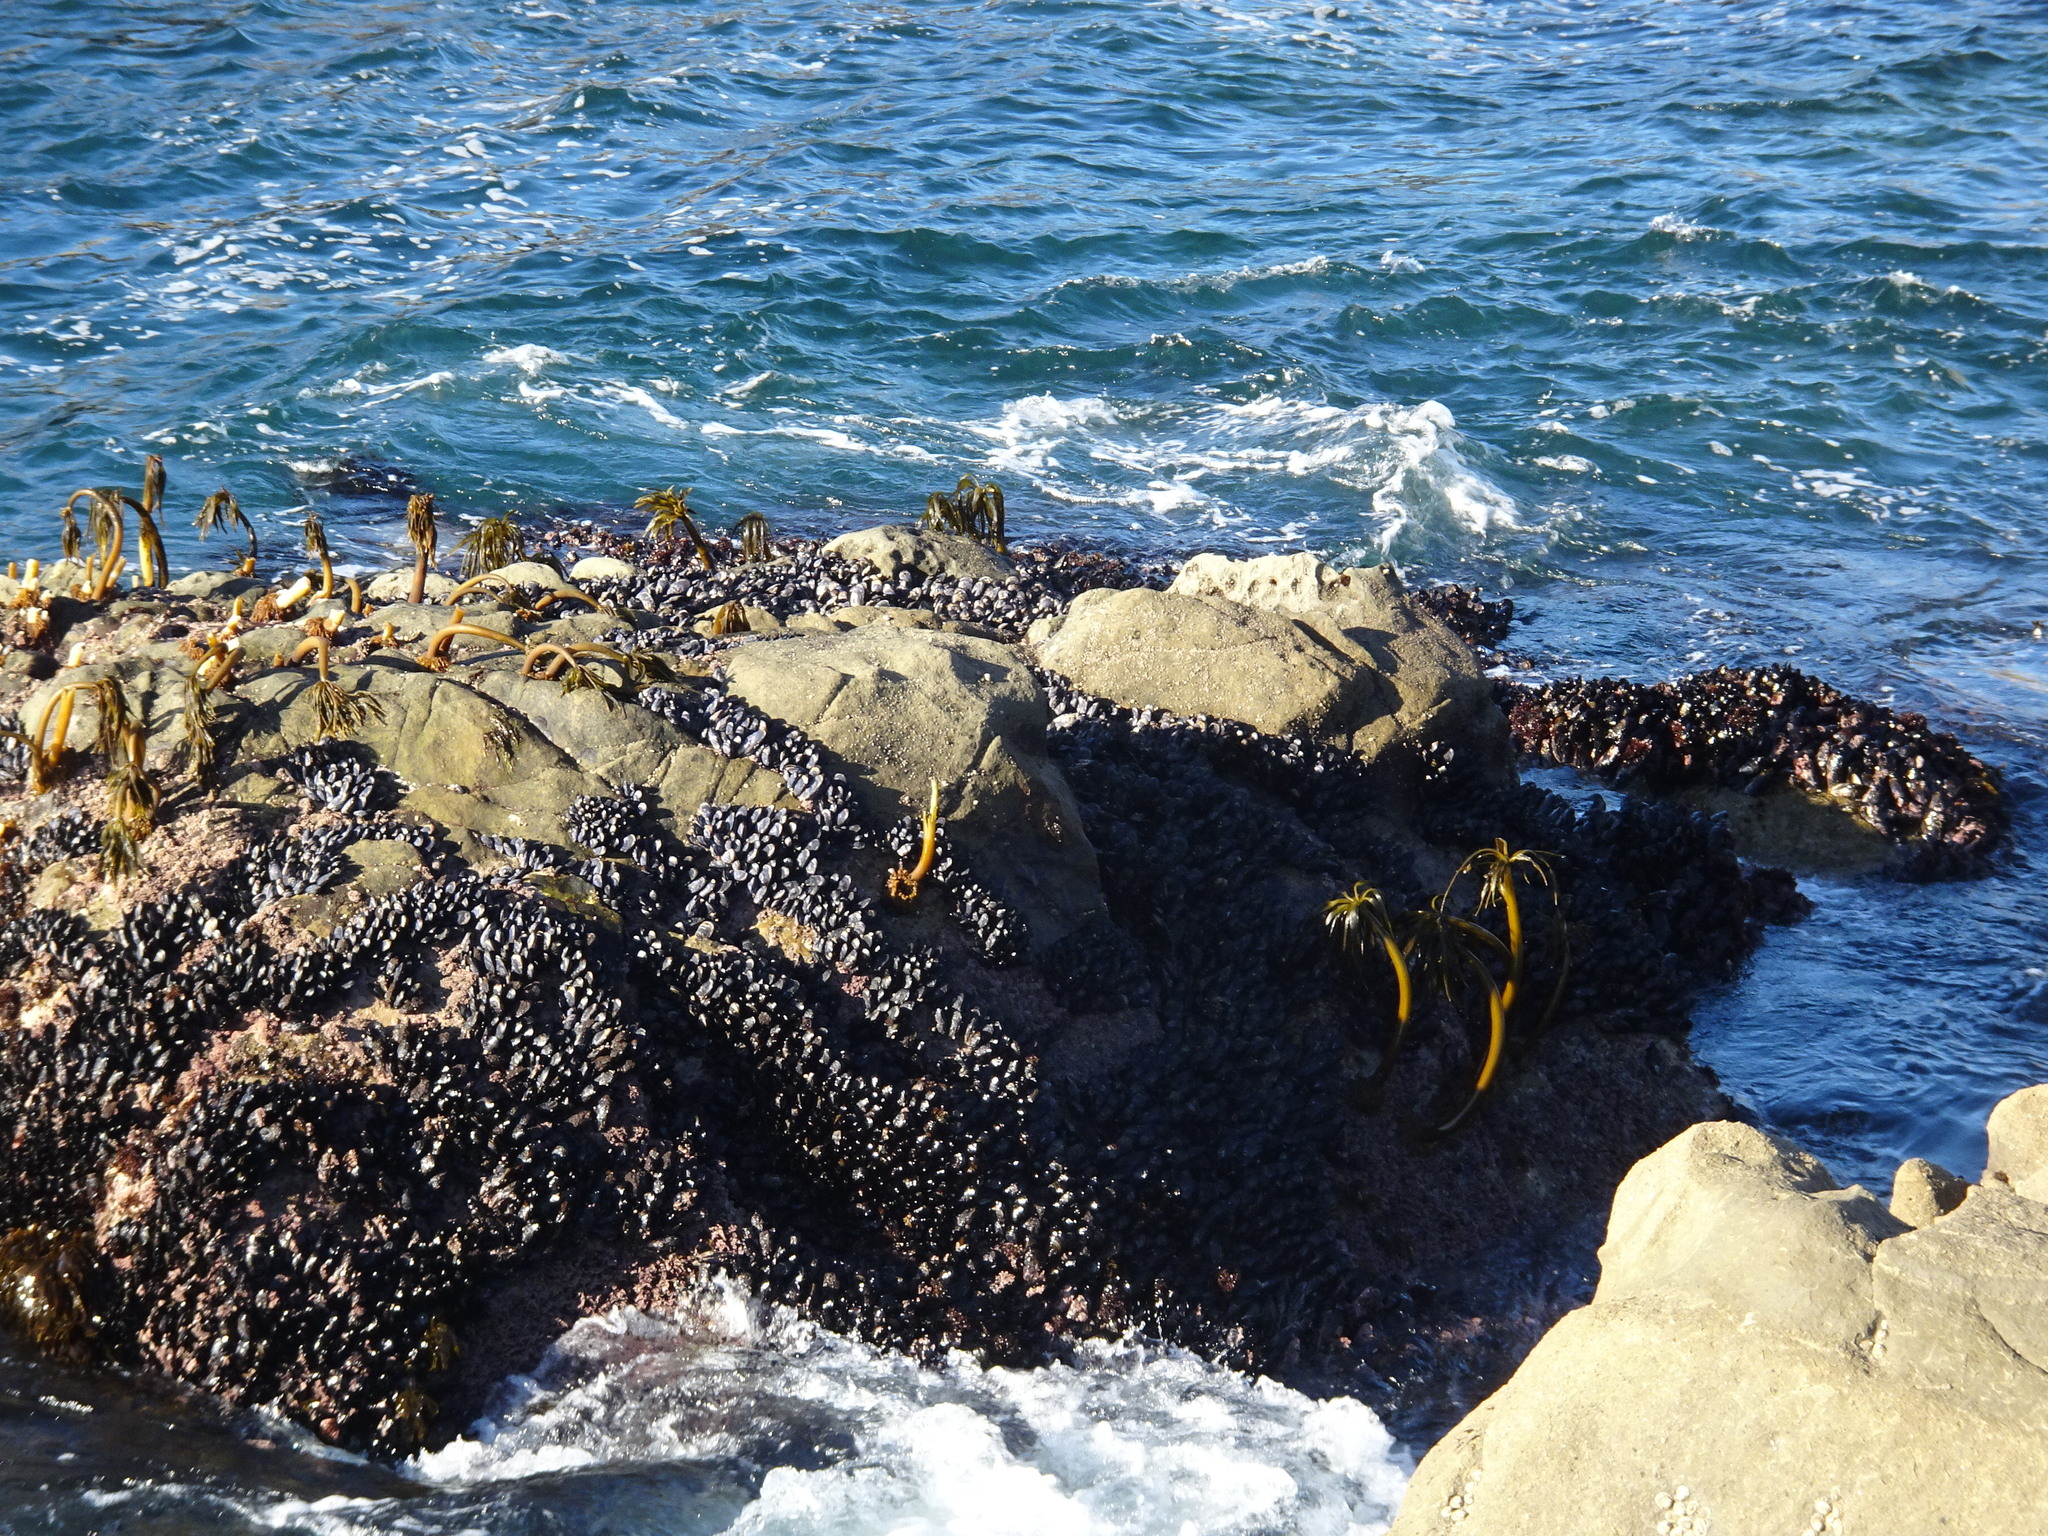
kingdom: Chromista
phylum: Ochrophyta
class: Phaeophyceae
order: Laminariales
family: Laminariaceae
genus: Postelsia
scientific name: Postelsia palmiformis
